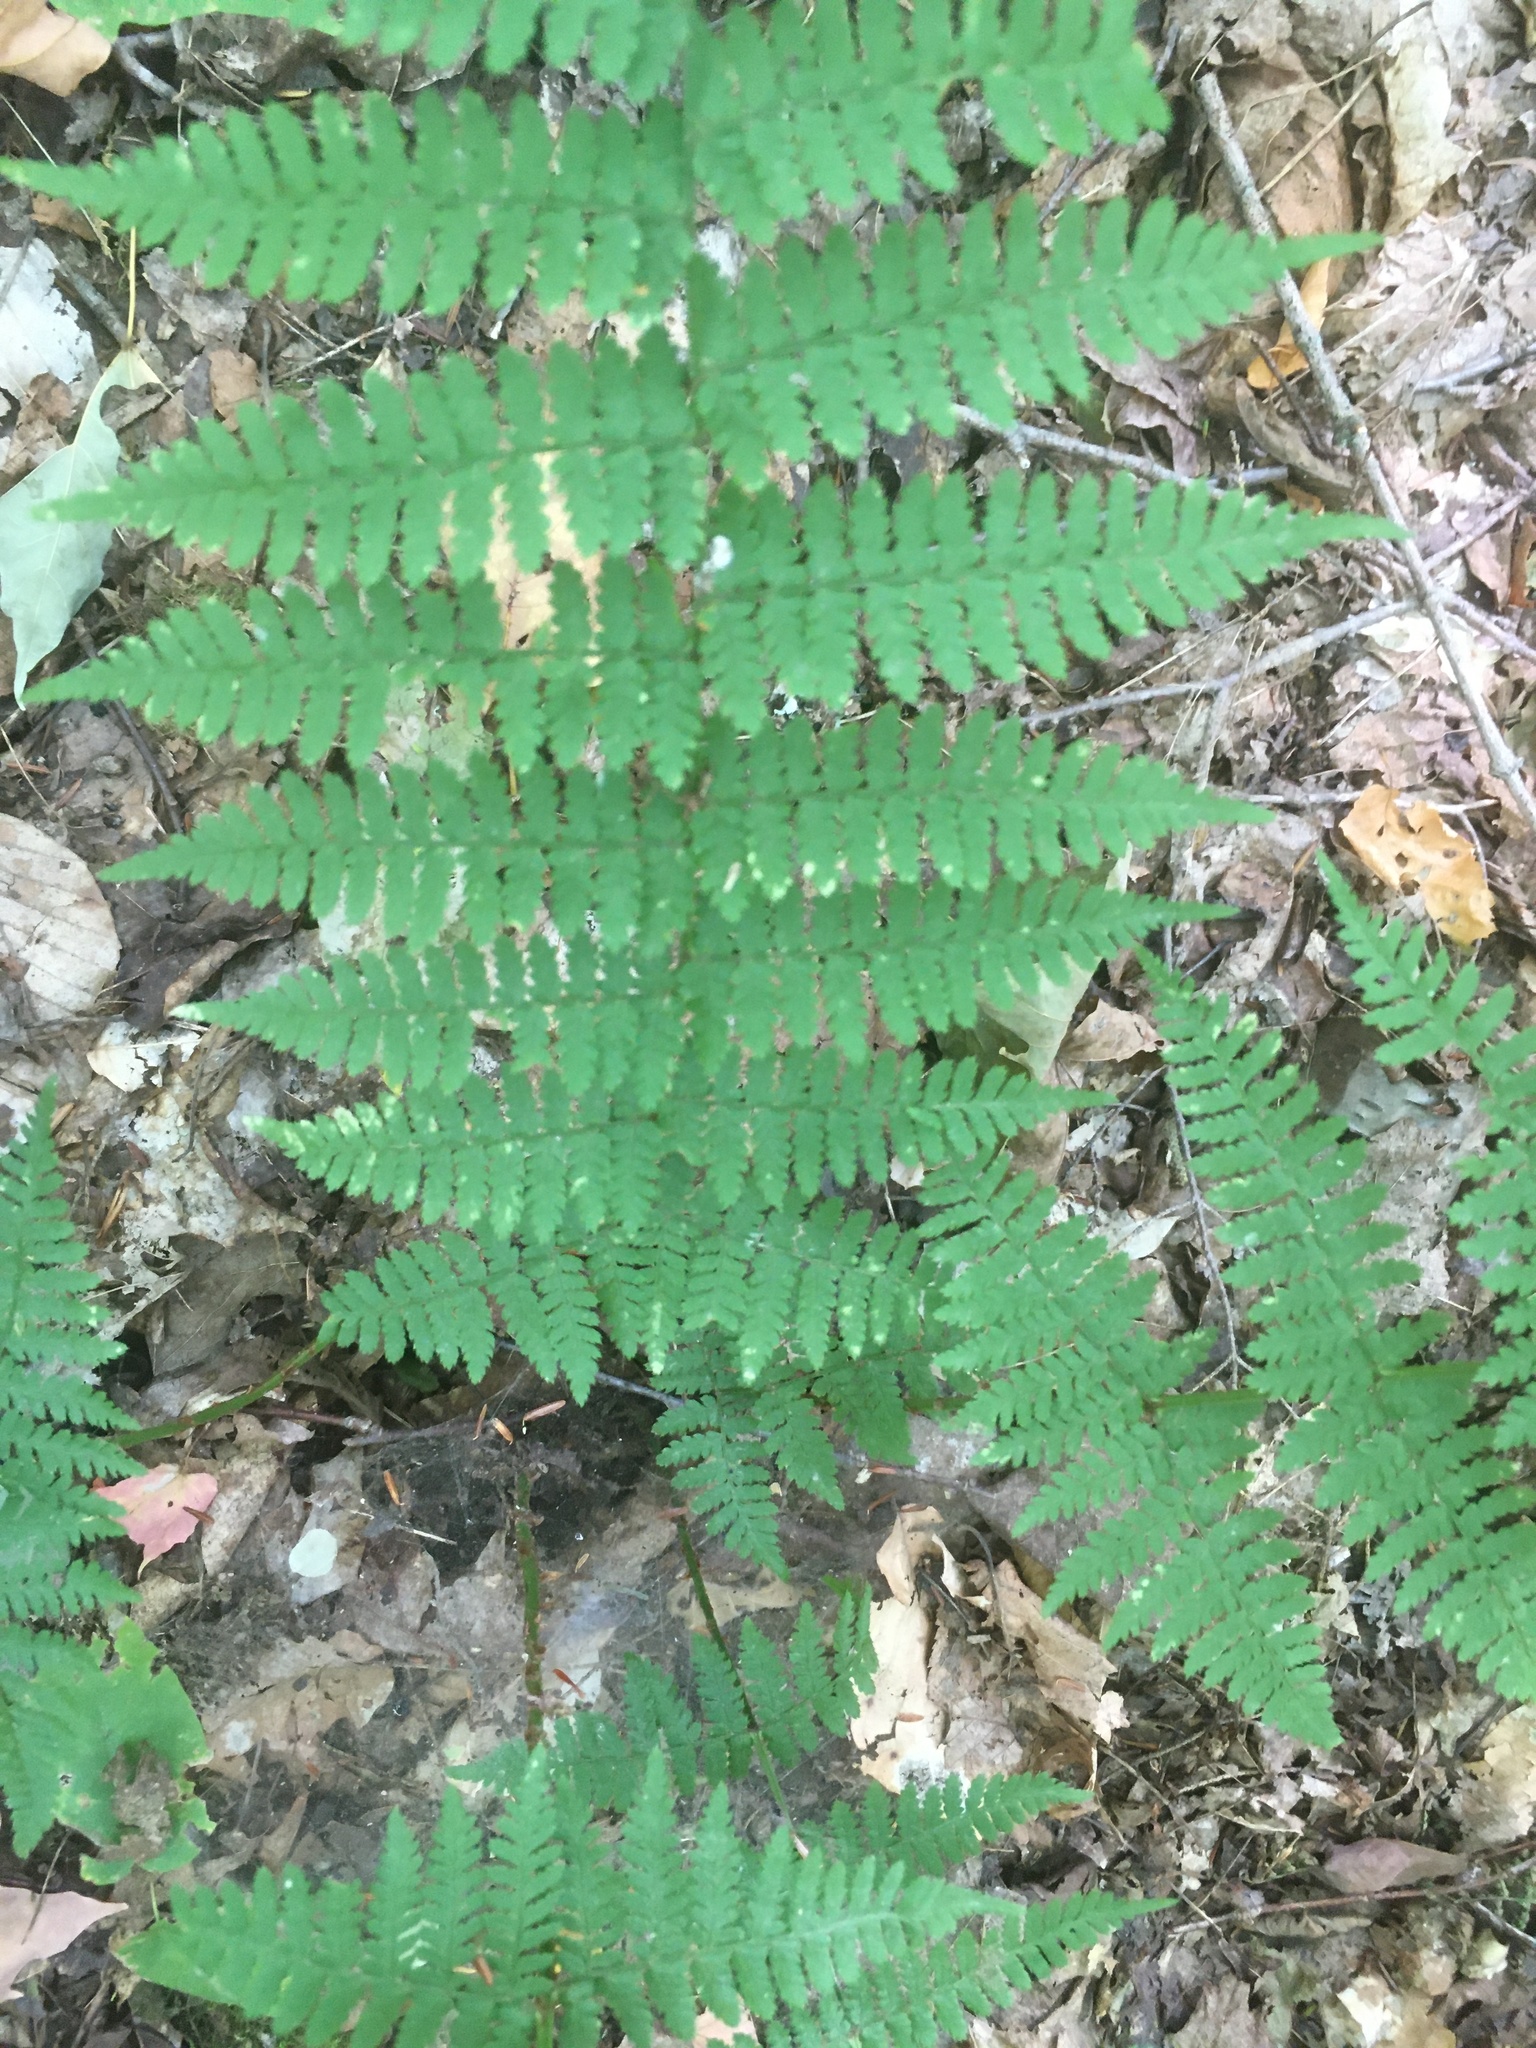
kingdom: Plantae
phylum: Tracheophyta
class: Polypodiopsida
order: Polypodiales
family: Dryopteridaceae
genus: Dryopteris
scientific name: Dryopteris intermedia
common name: Evergreen wood fern
